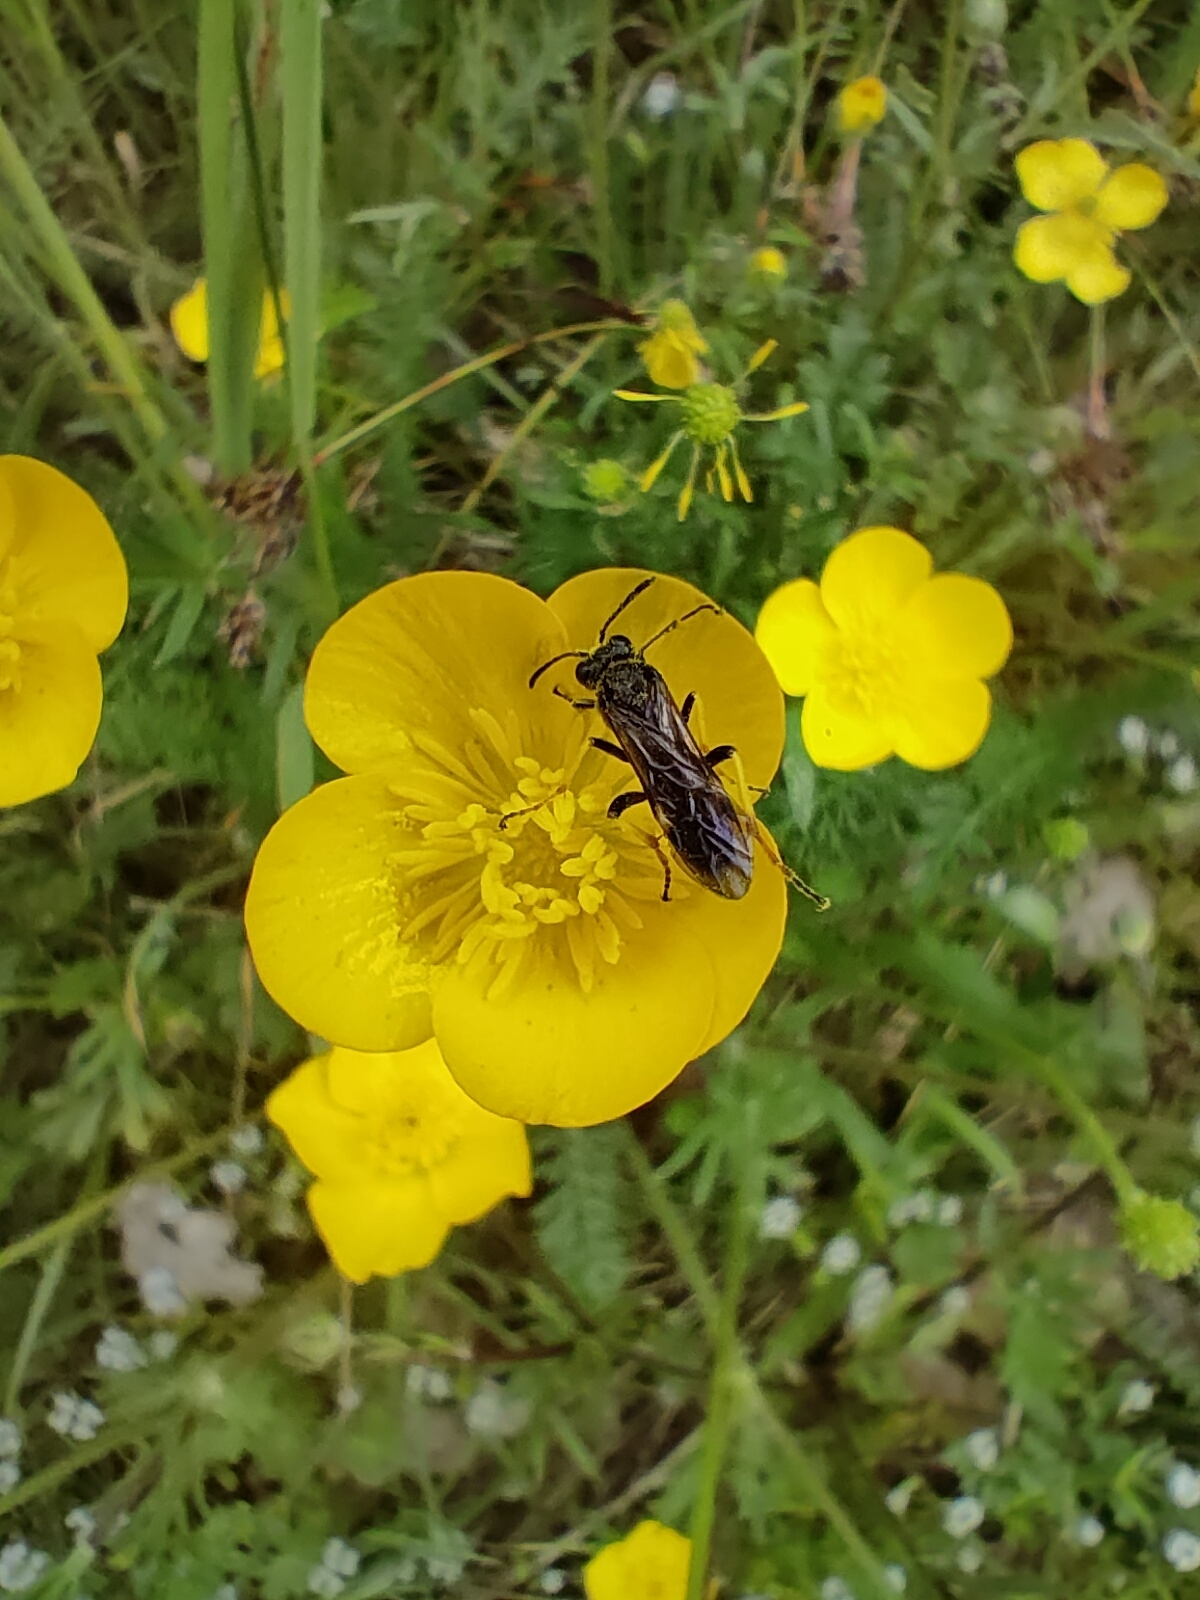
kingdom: Animalia
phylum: Arthropoda
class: Insecta
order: Hymenoptera
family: Tenthredinidae
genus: Tenthredo
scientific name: Tenthredo koehleri
